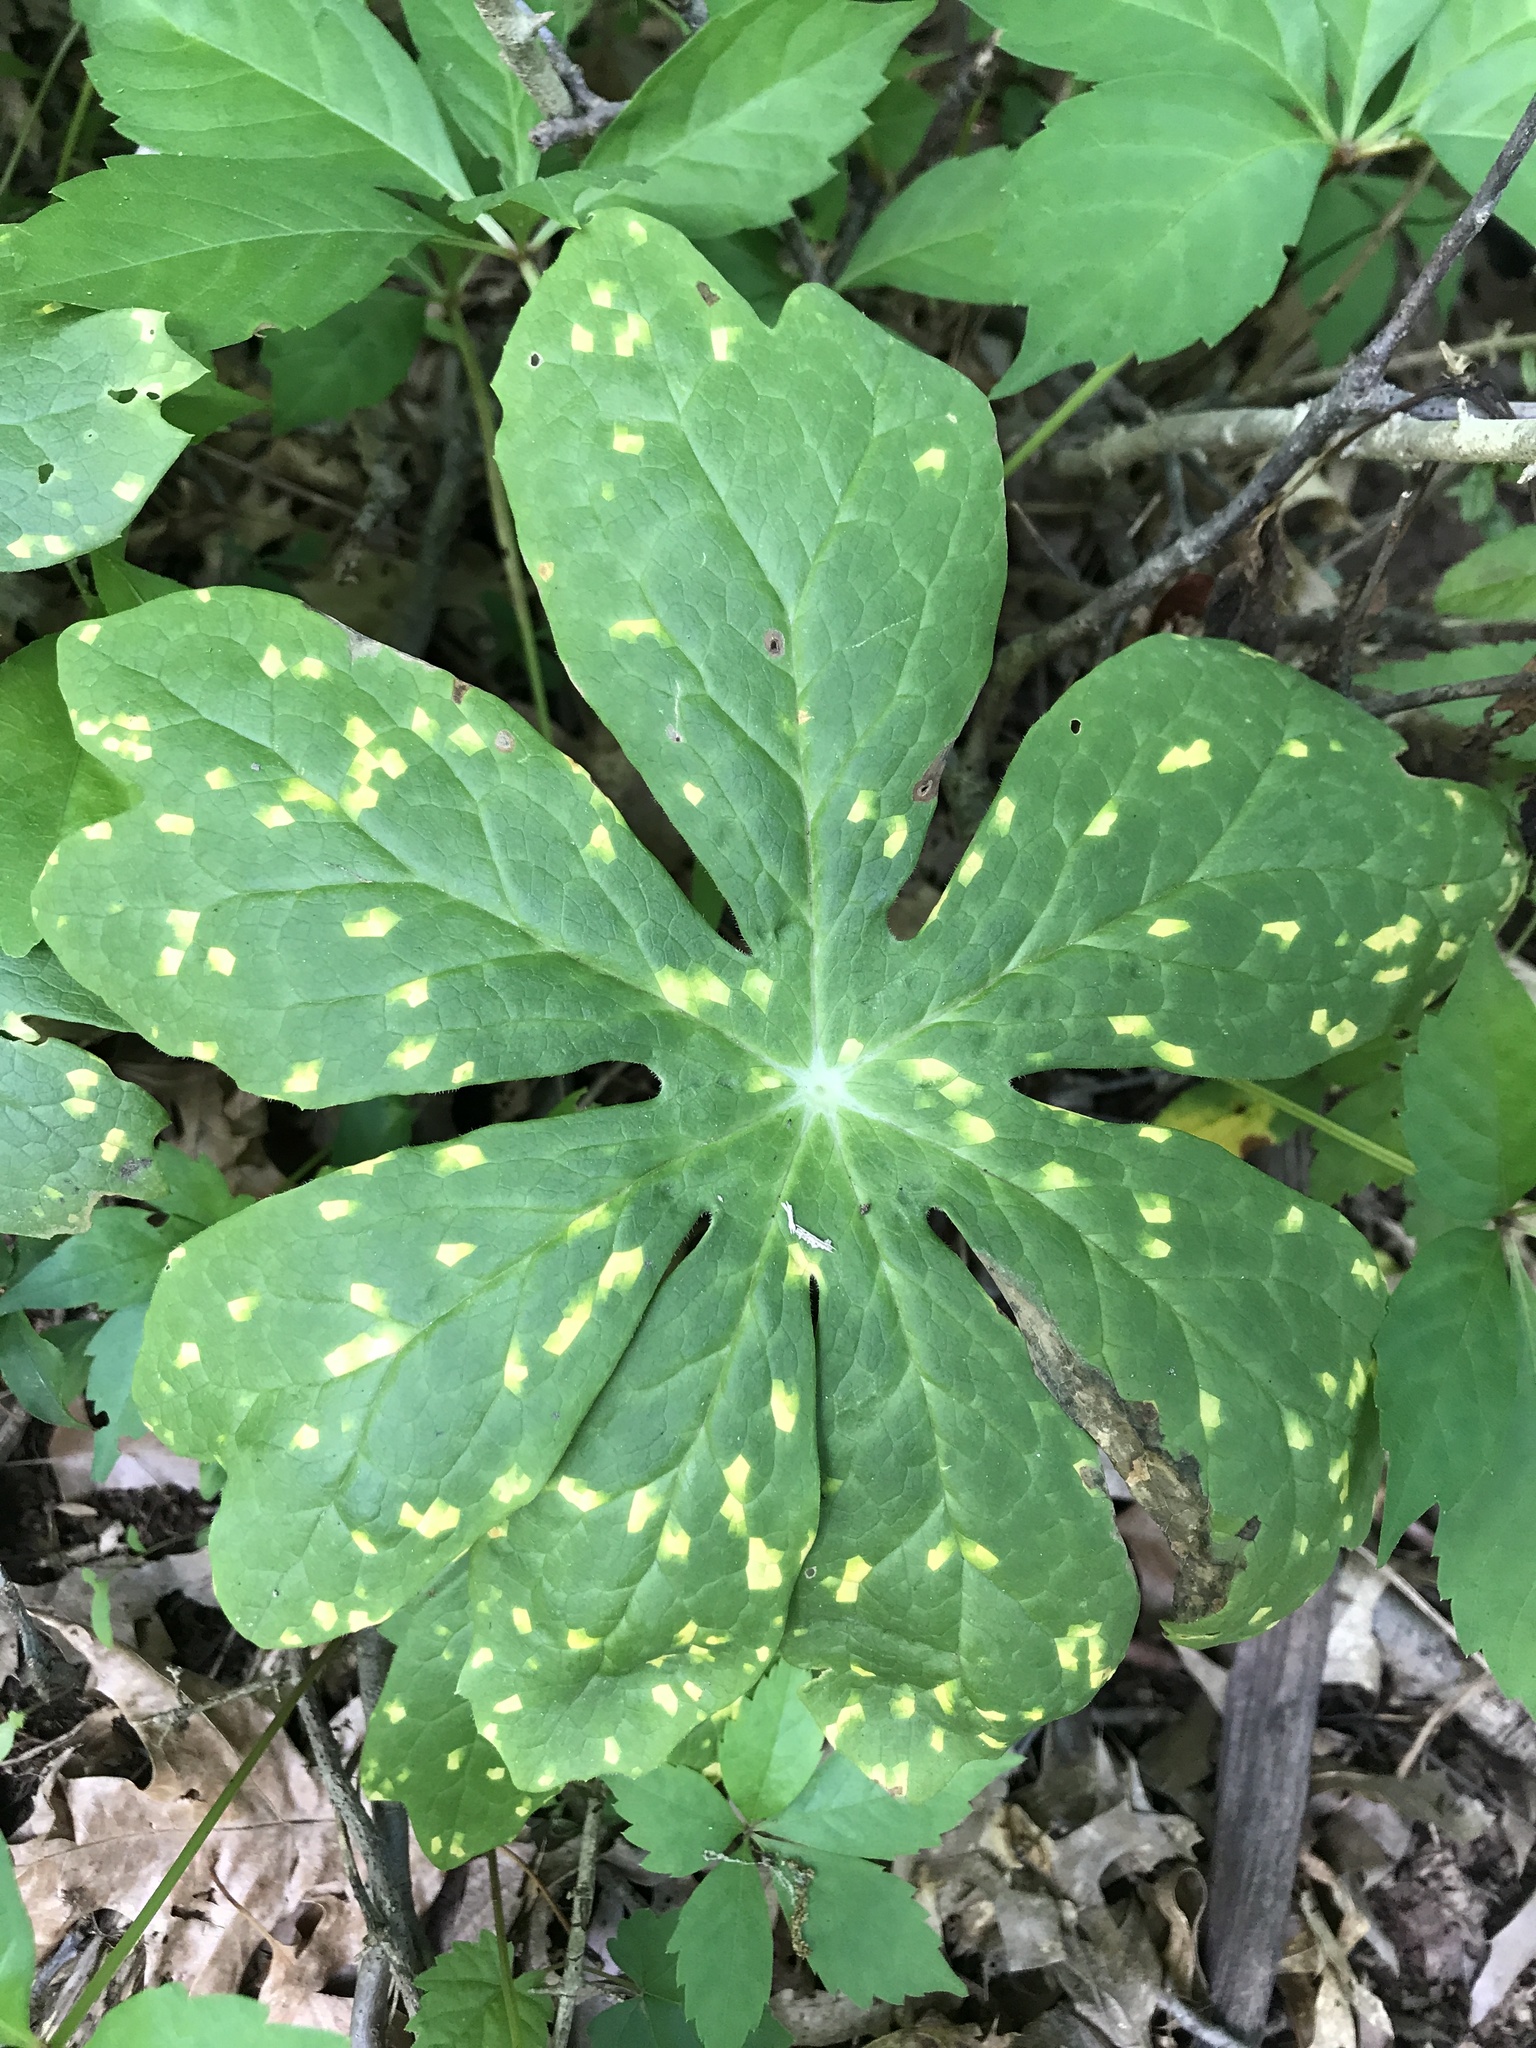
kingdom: Plantae
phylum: Tracheophyta
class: Magnoliopsida
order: Ranunculales
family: Berberidaceae
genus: Podophyllum
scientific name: Podophyllum peltatum
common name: Wild mandrake
